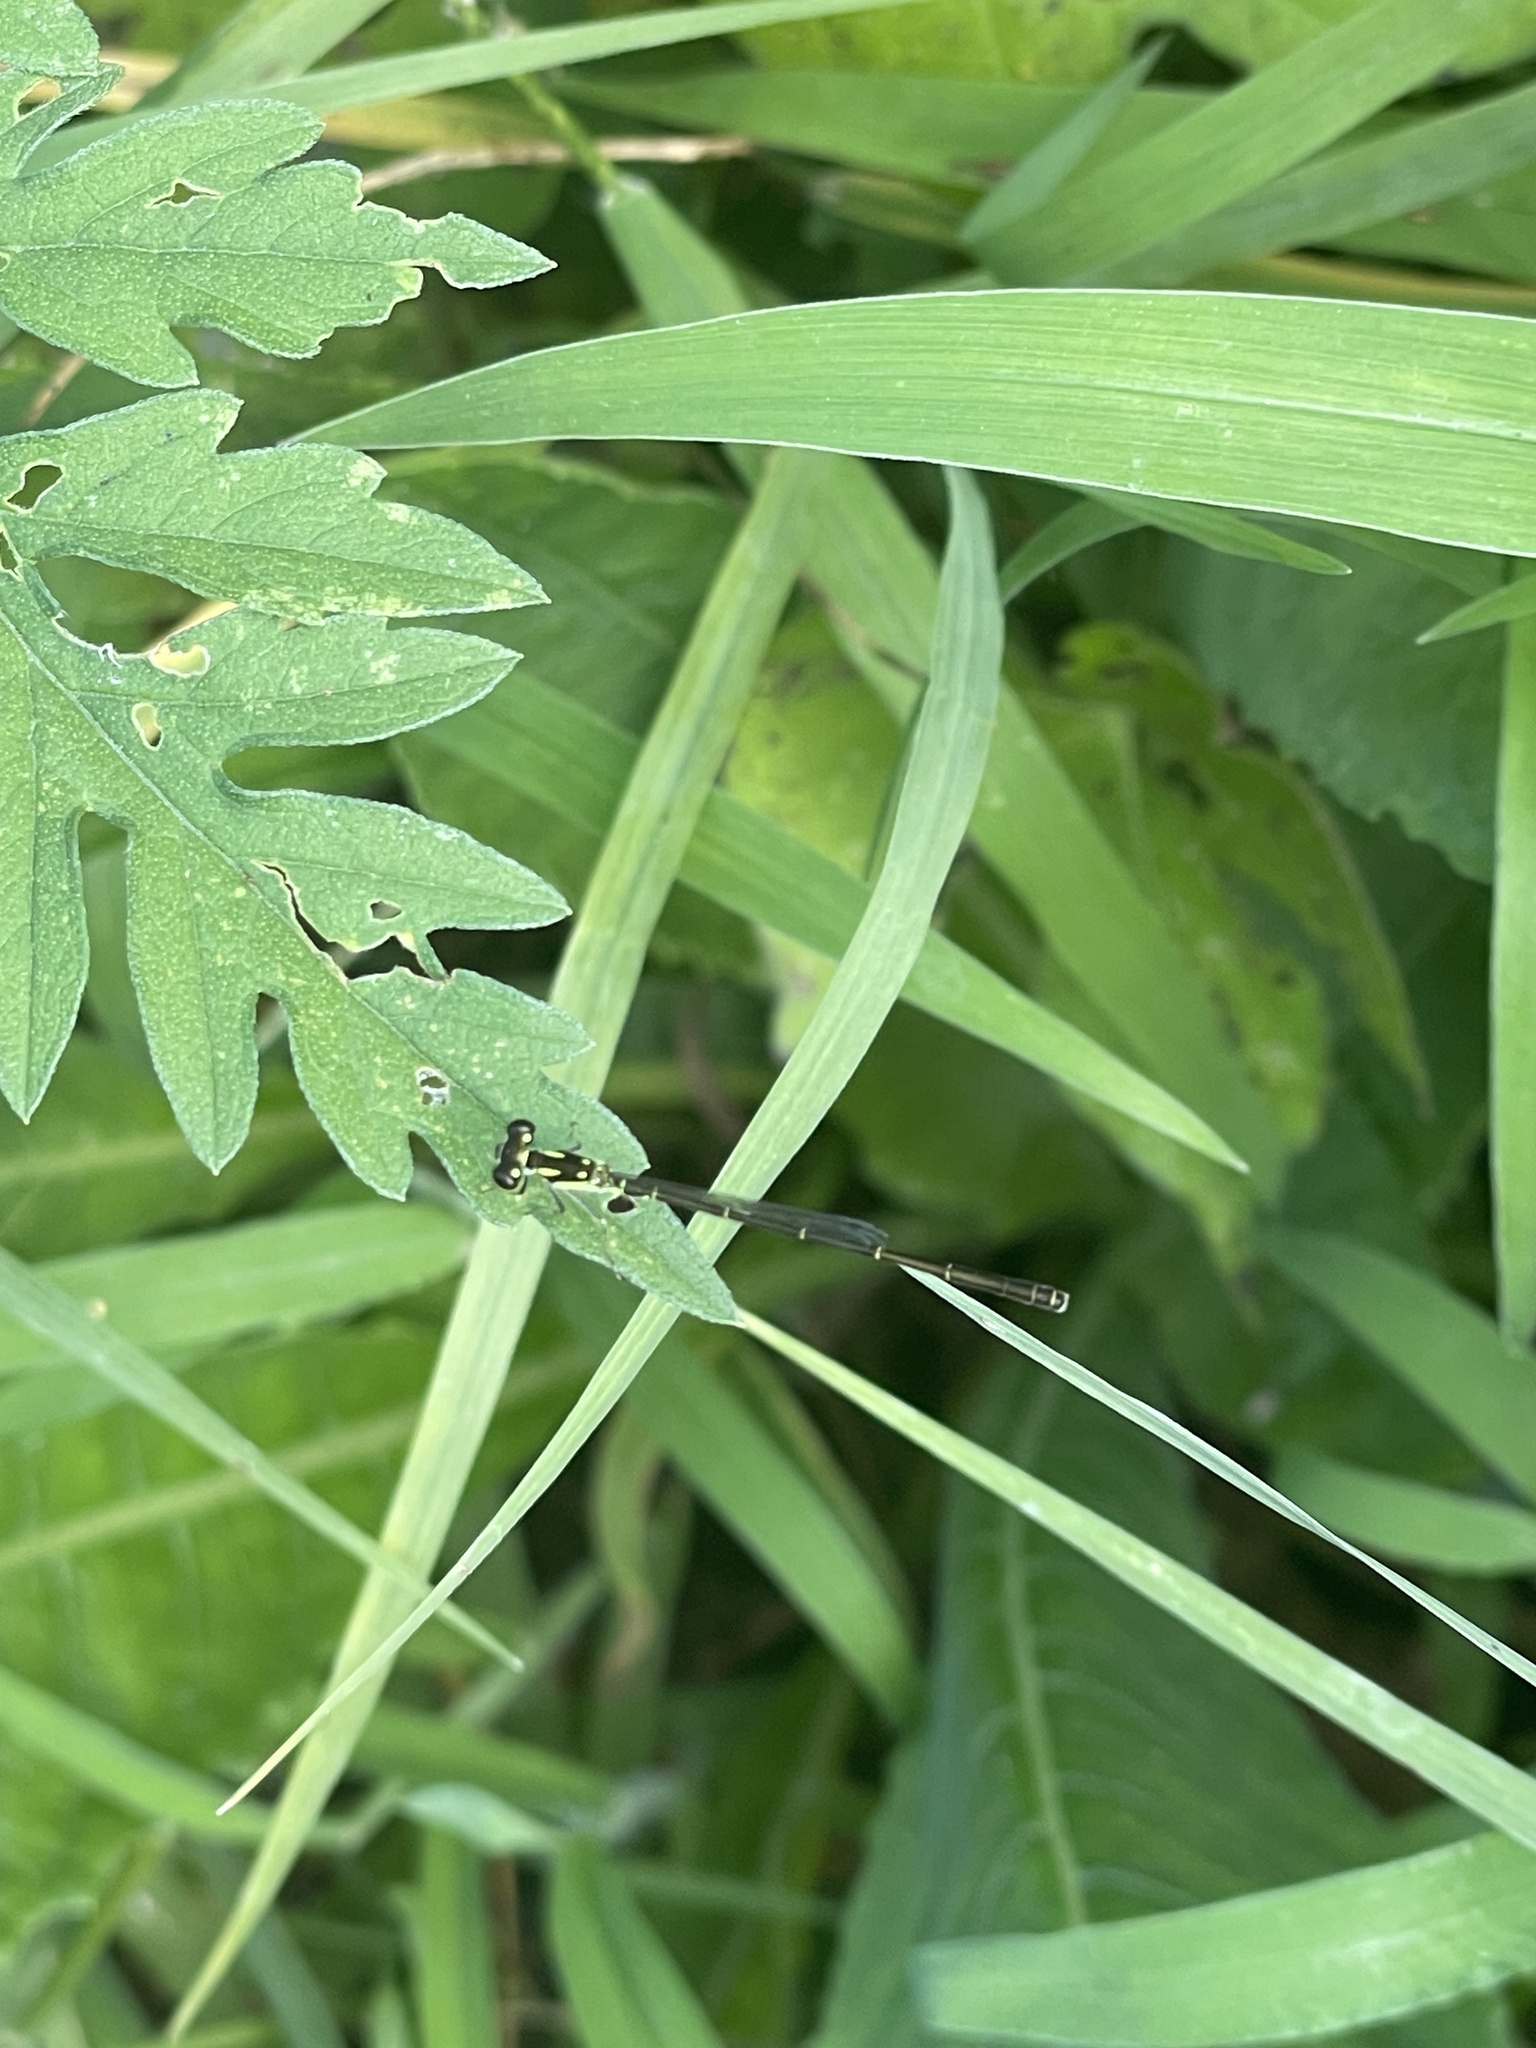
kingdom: Animalia
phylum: Arthropoda
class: Insecta
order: Odonata
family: Coenagrionidae
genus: Ischnura
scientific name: Ischnura posita
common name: Fragile forktail
